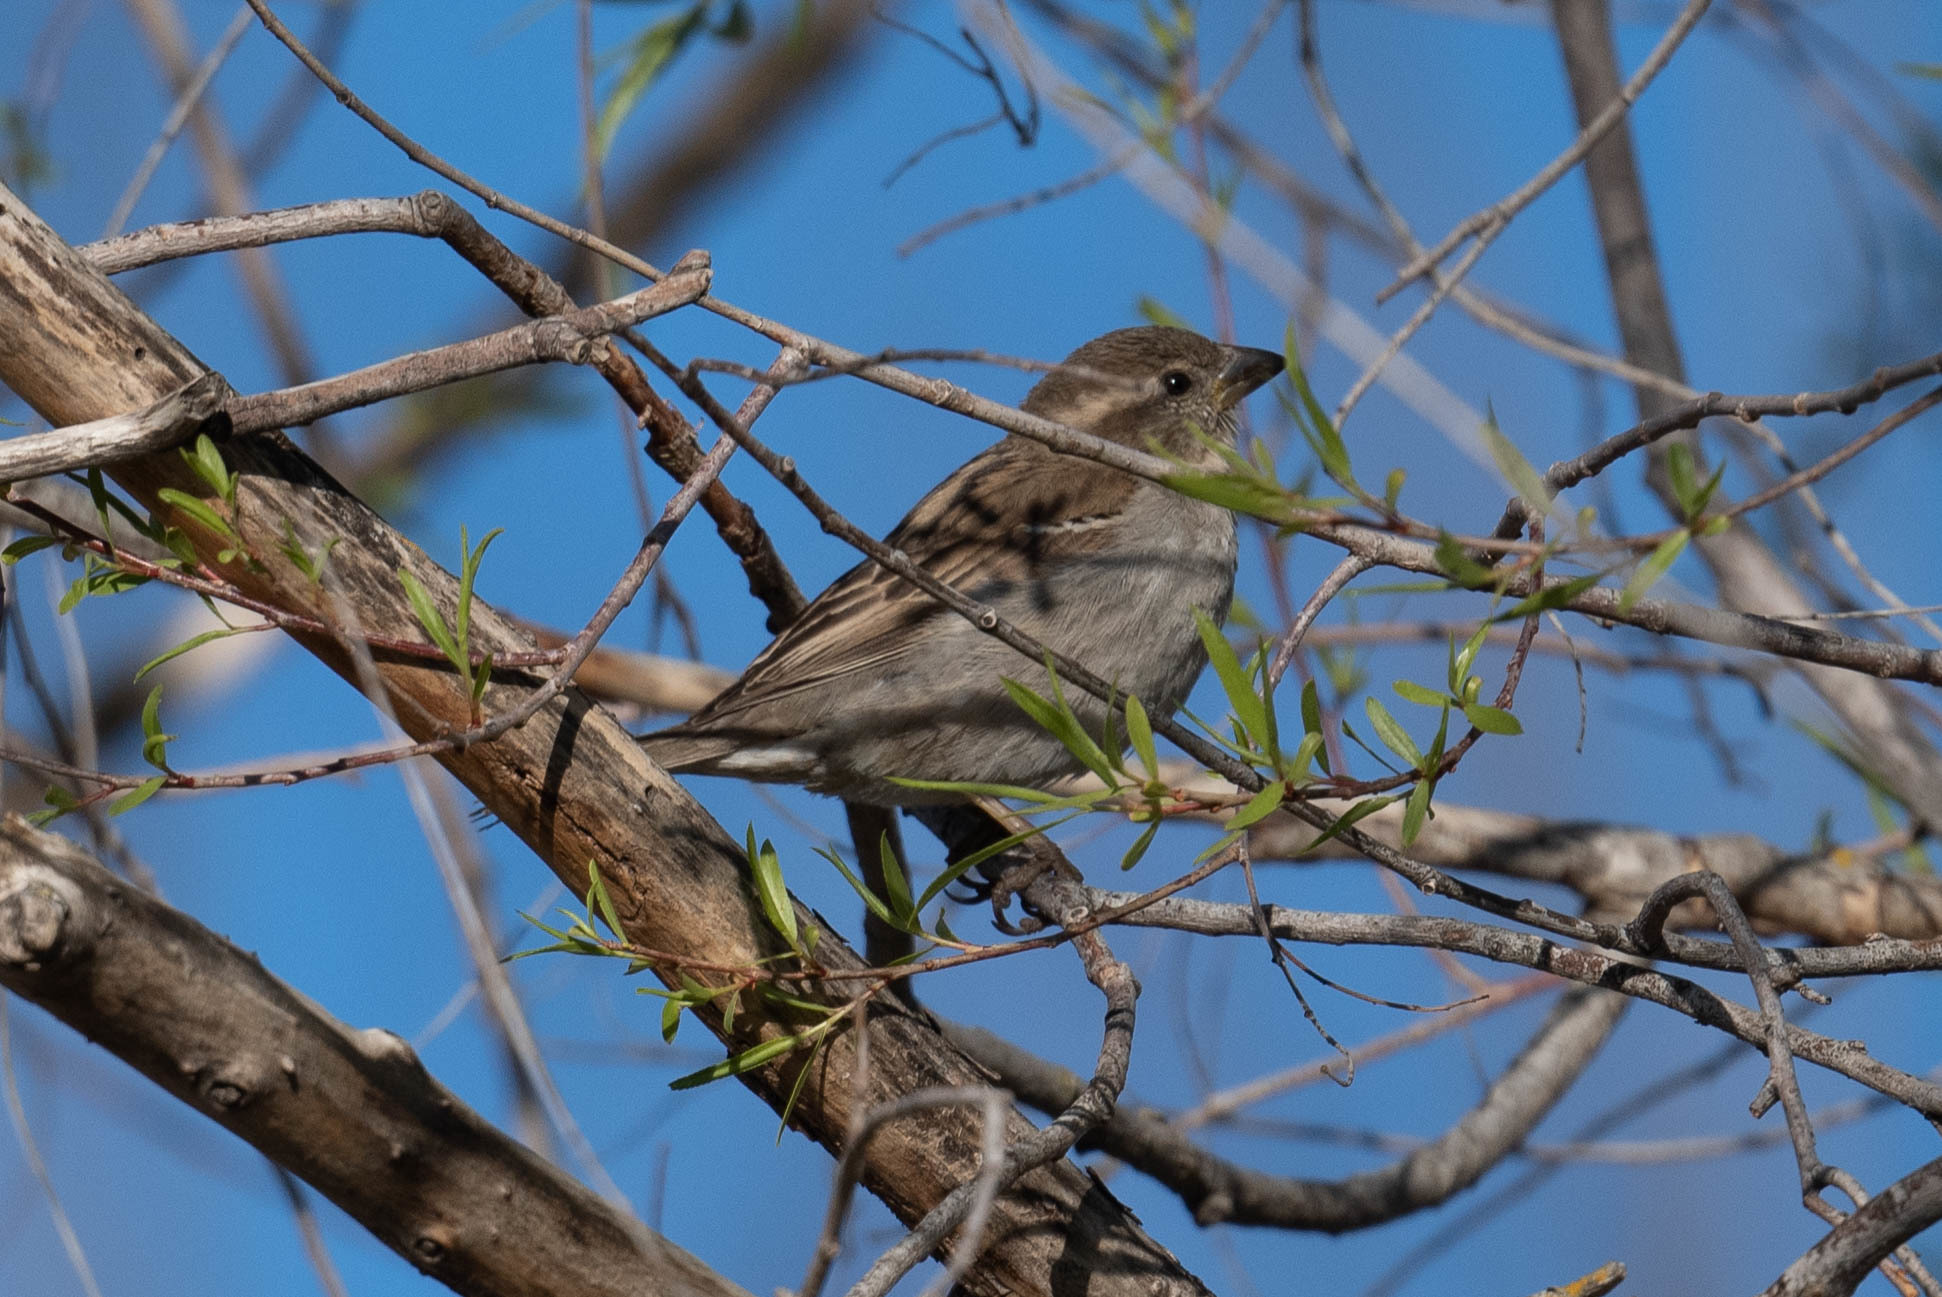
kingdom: Animalia
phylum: Chordata
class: Aves
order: Passeriformes
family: Passeridae
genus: Passer
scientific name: Passer domesticus
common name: House sparrow
